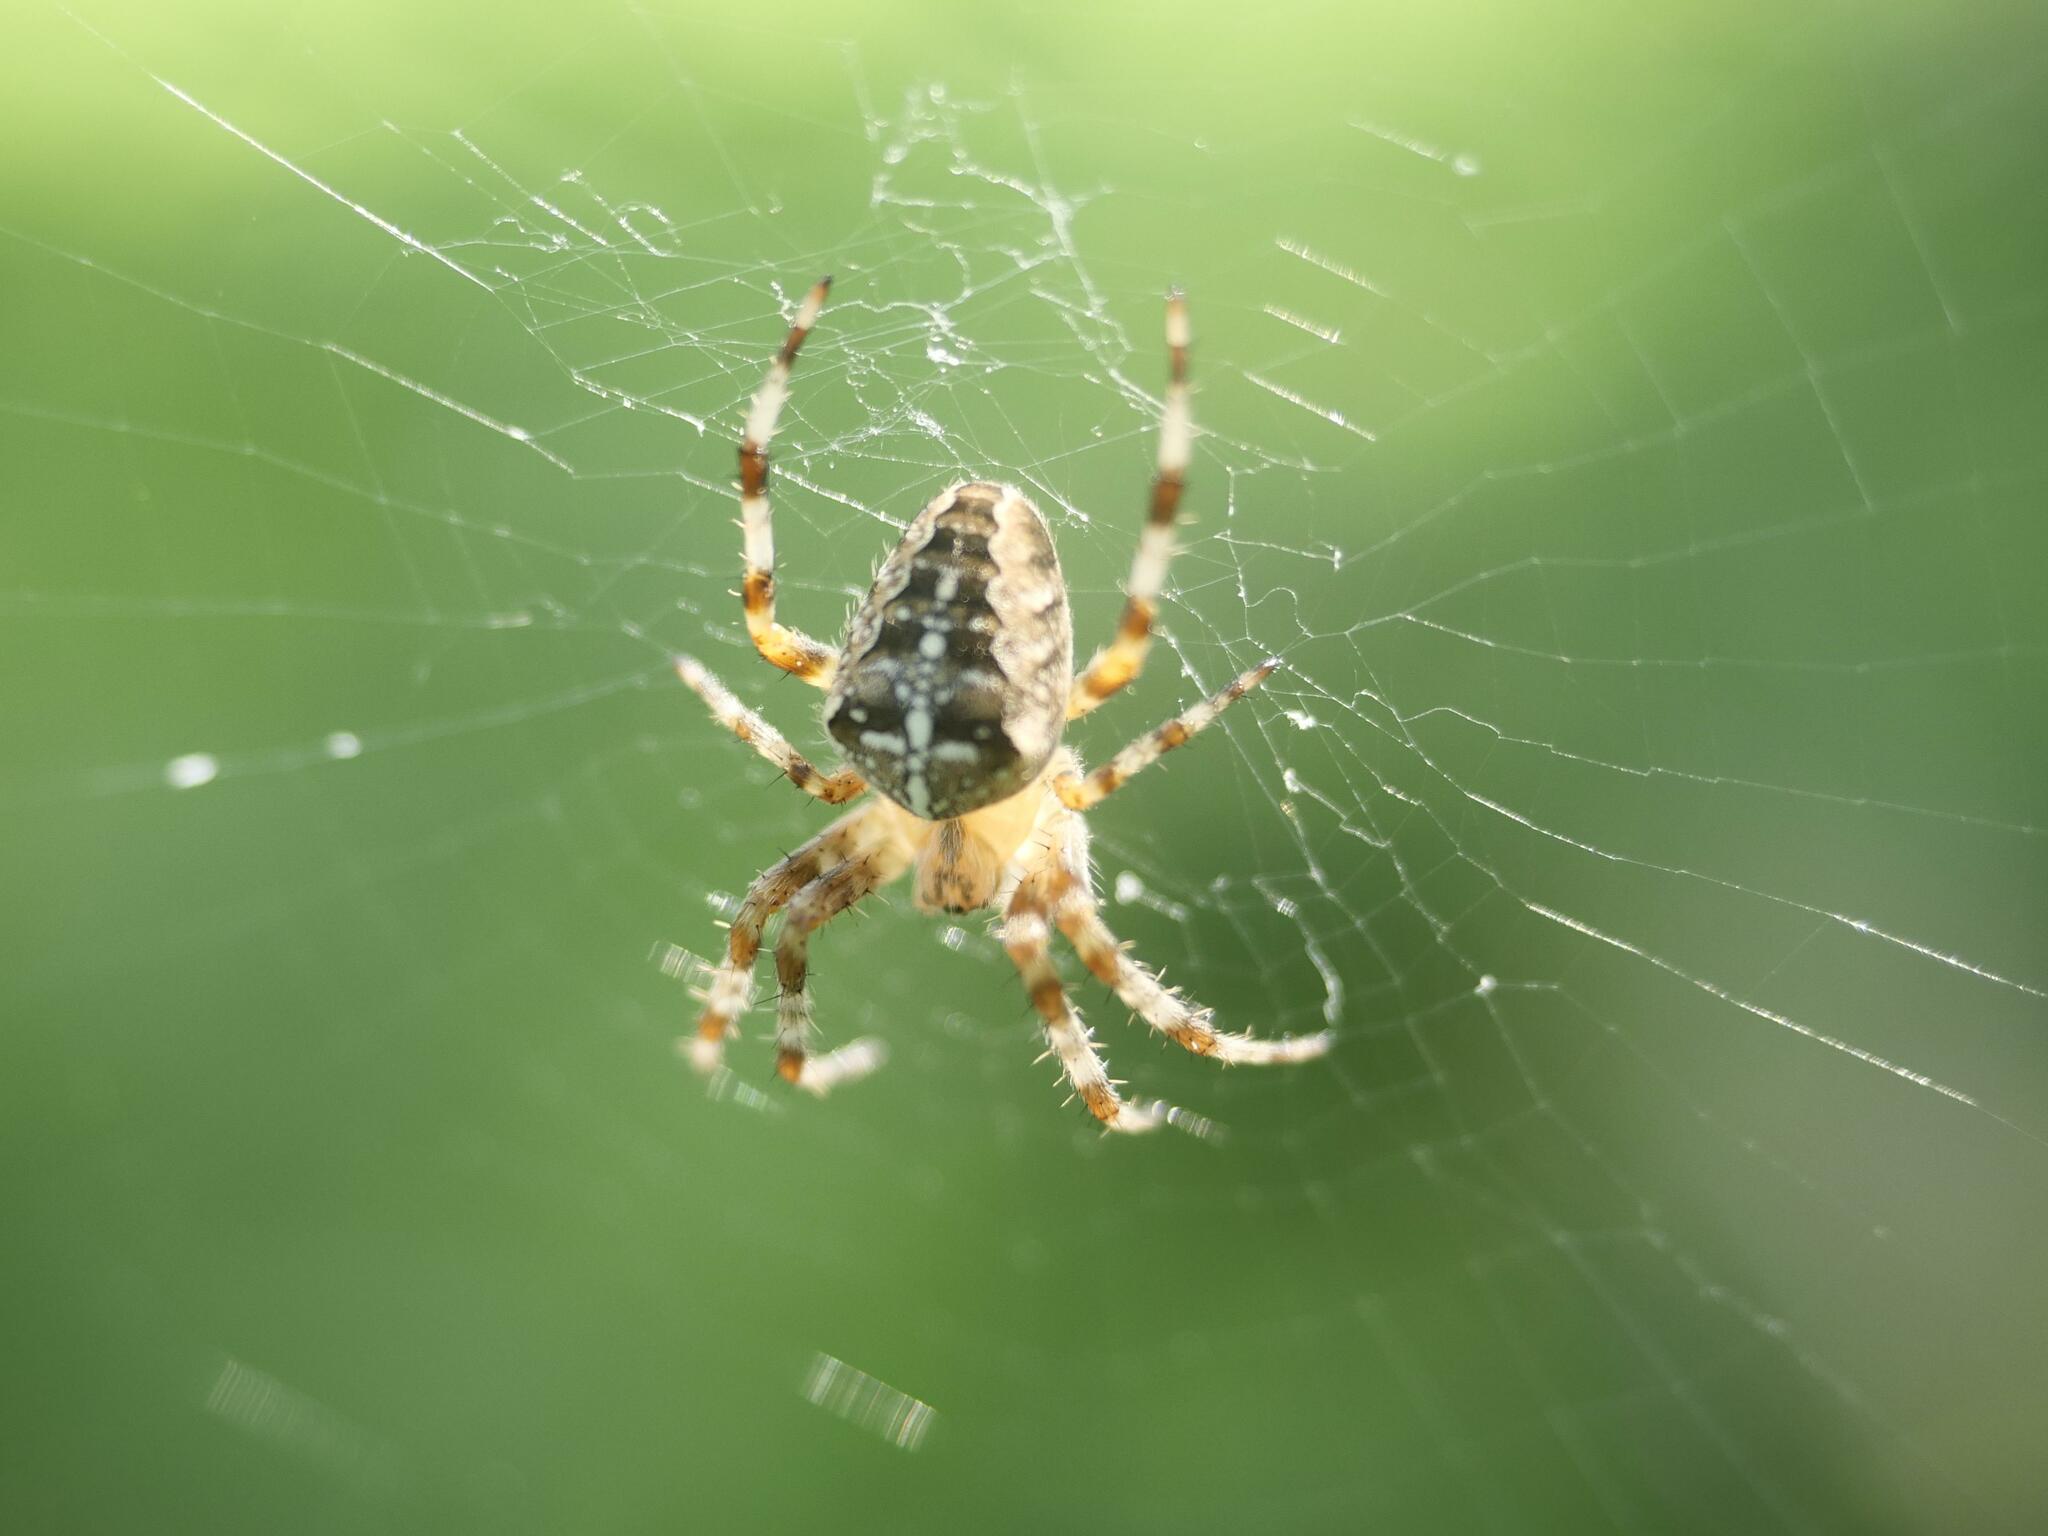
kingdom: Animalia
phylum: Arthropoda
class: Arachnida
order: Araneae
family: Araneidae
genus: Araneus
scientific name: Araneus diadematus
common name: Cross orbweaver
